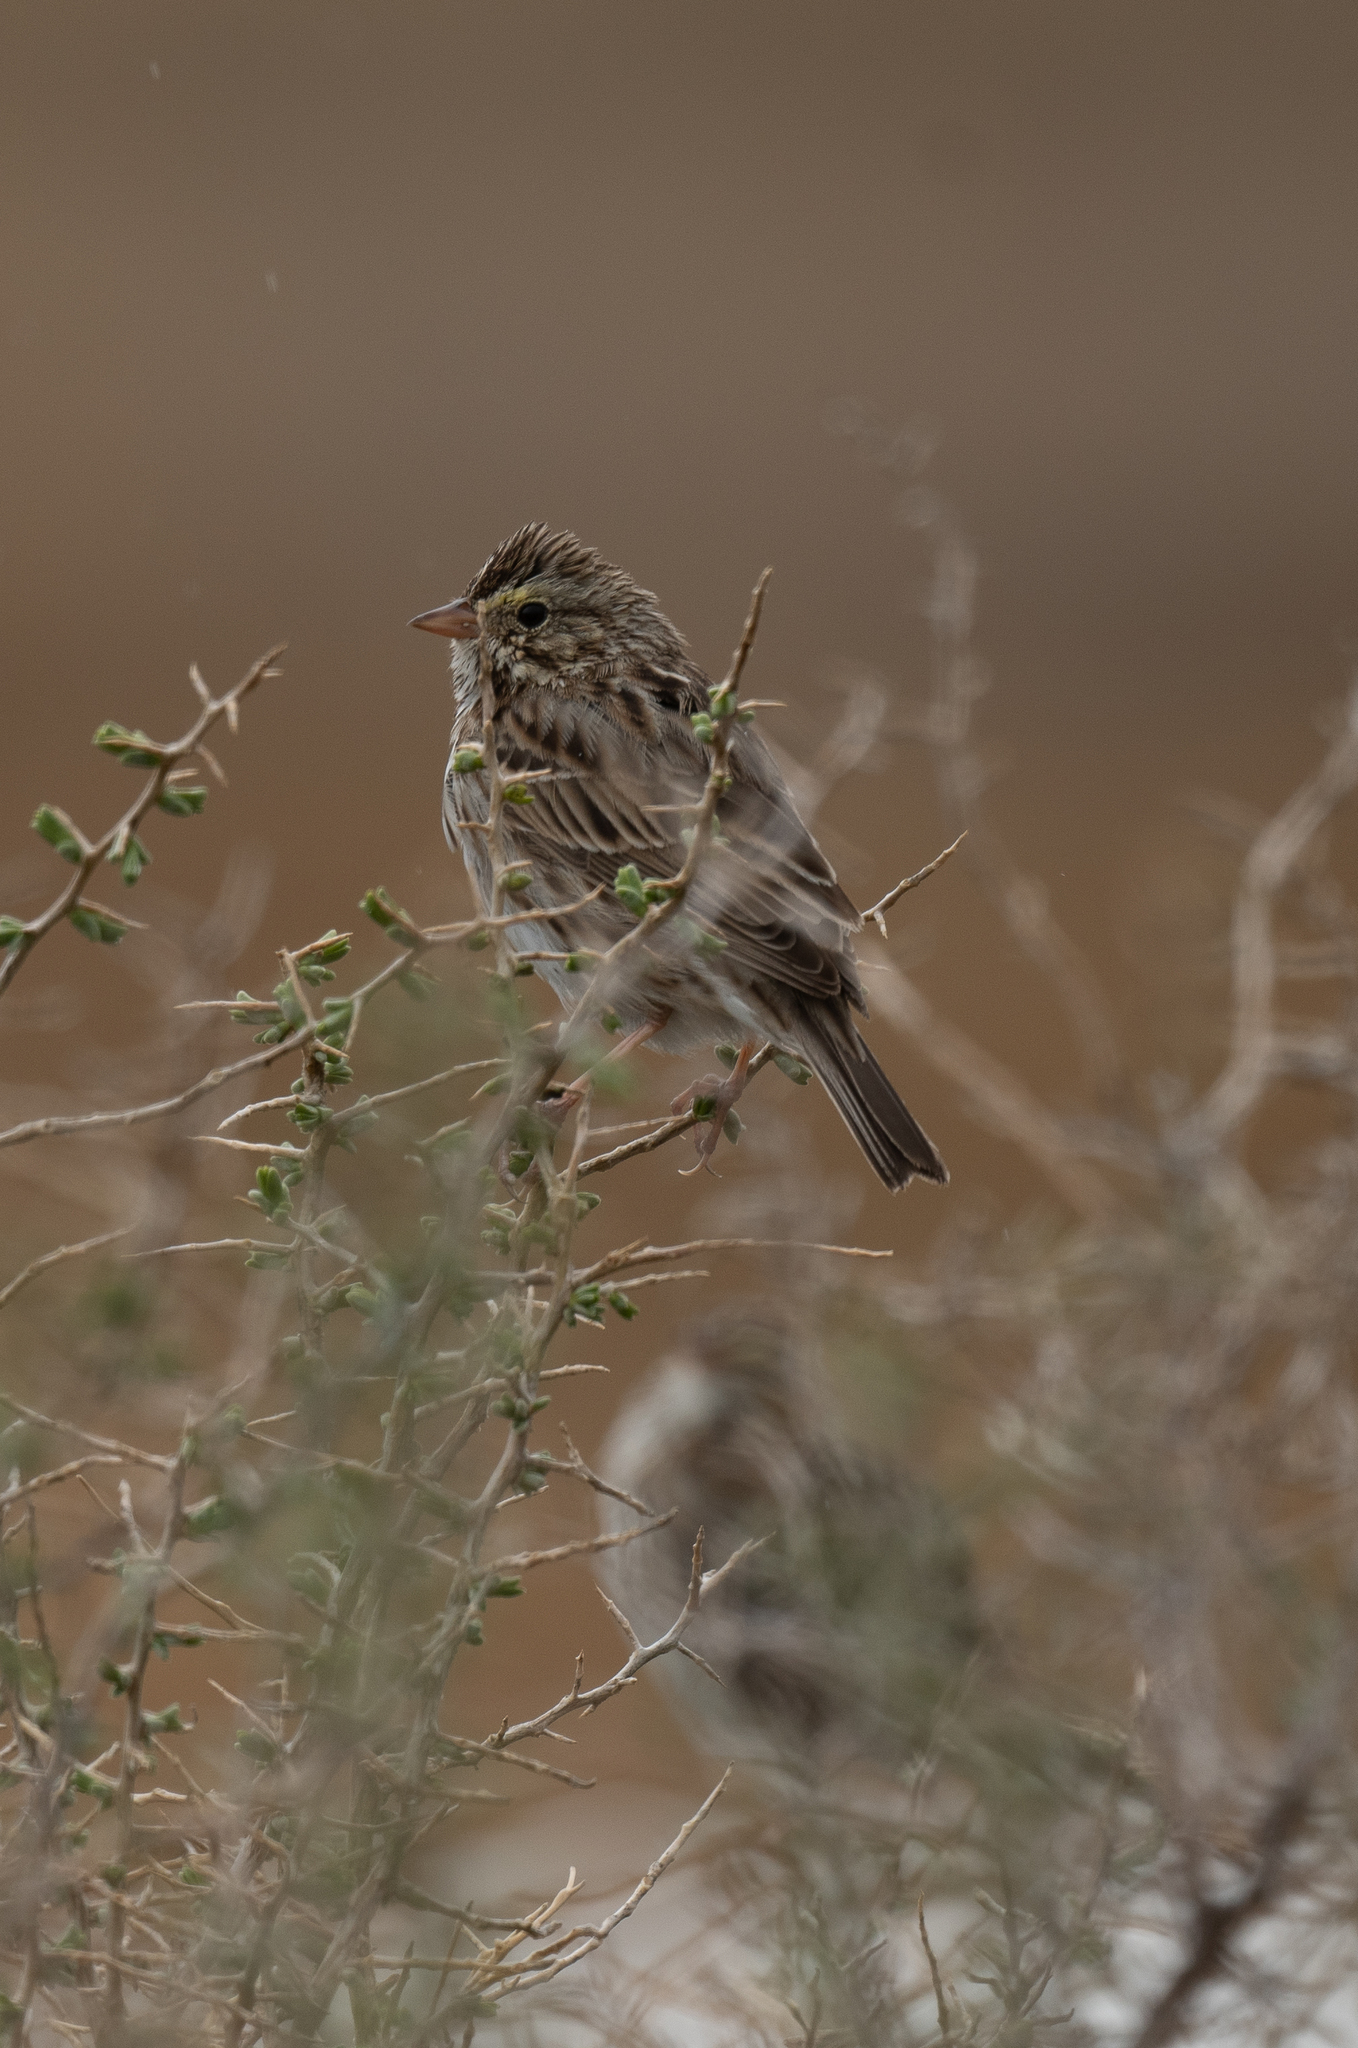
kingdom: Animalia
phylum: Chordata
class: Aves
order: Passeriformes
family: Passerellidae
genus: Passerculus
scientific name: Passerculus sandwichensis
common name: Savannah sparrow
